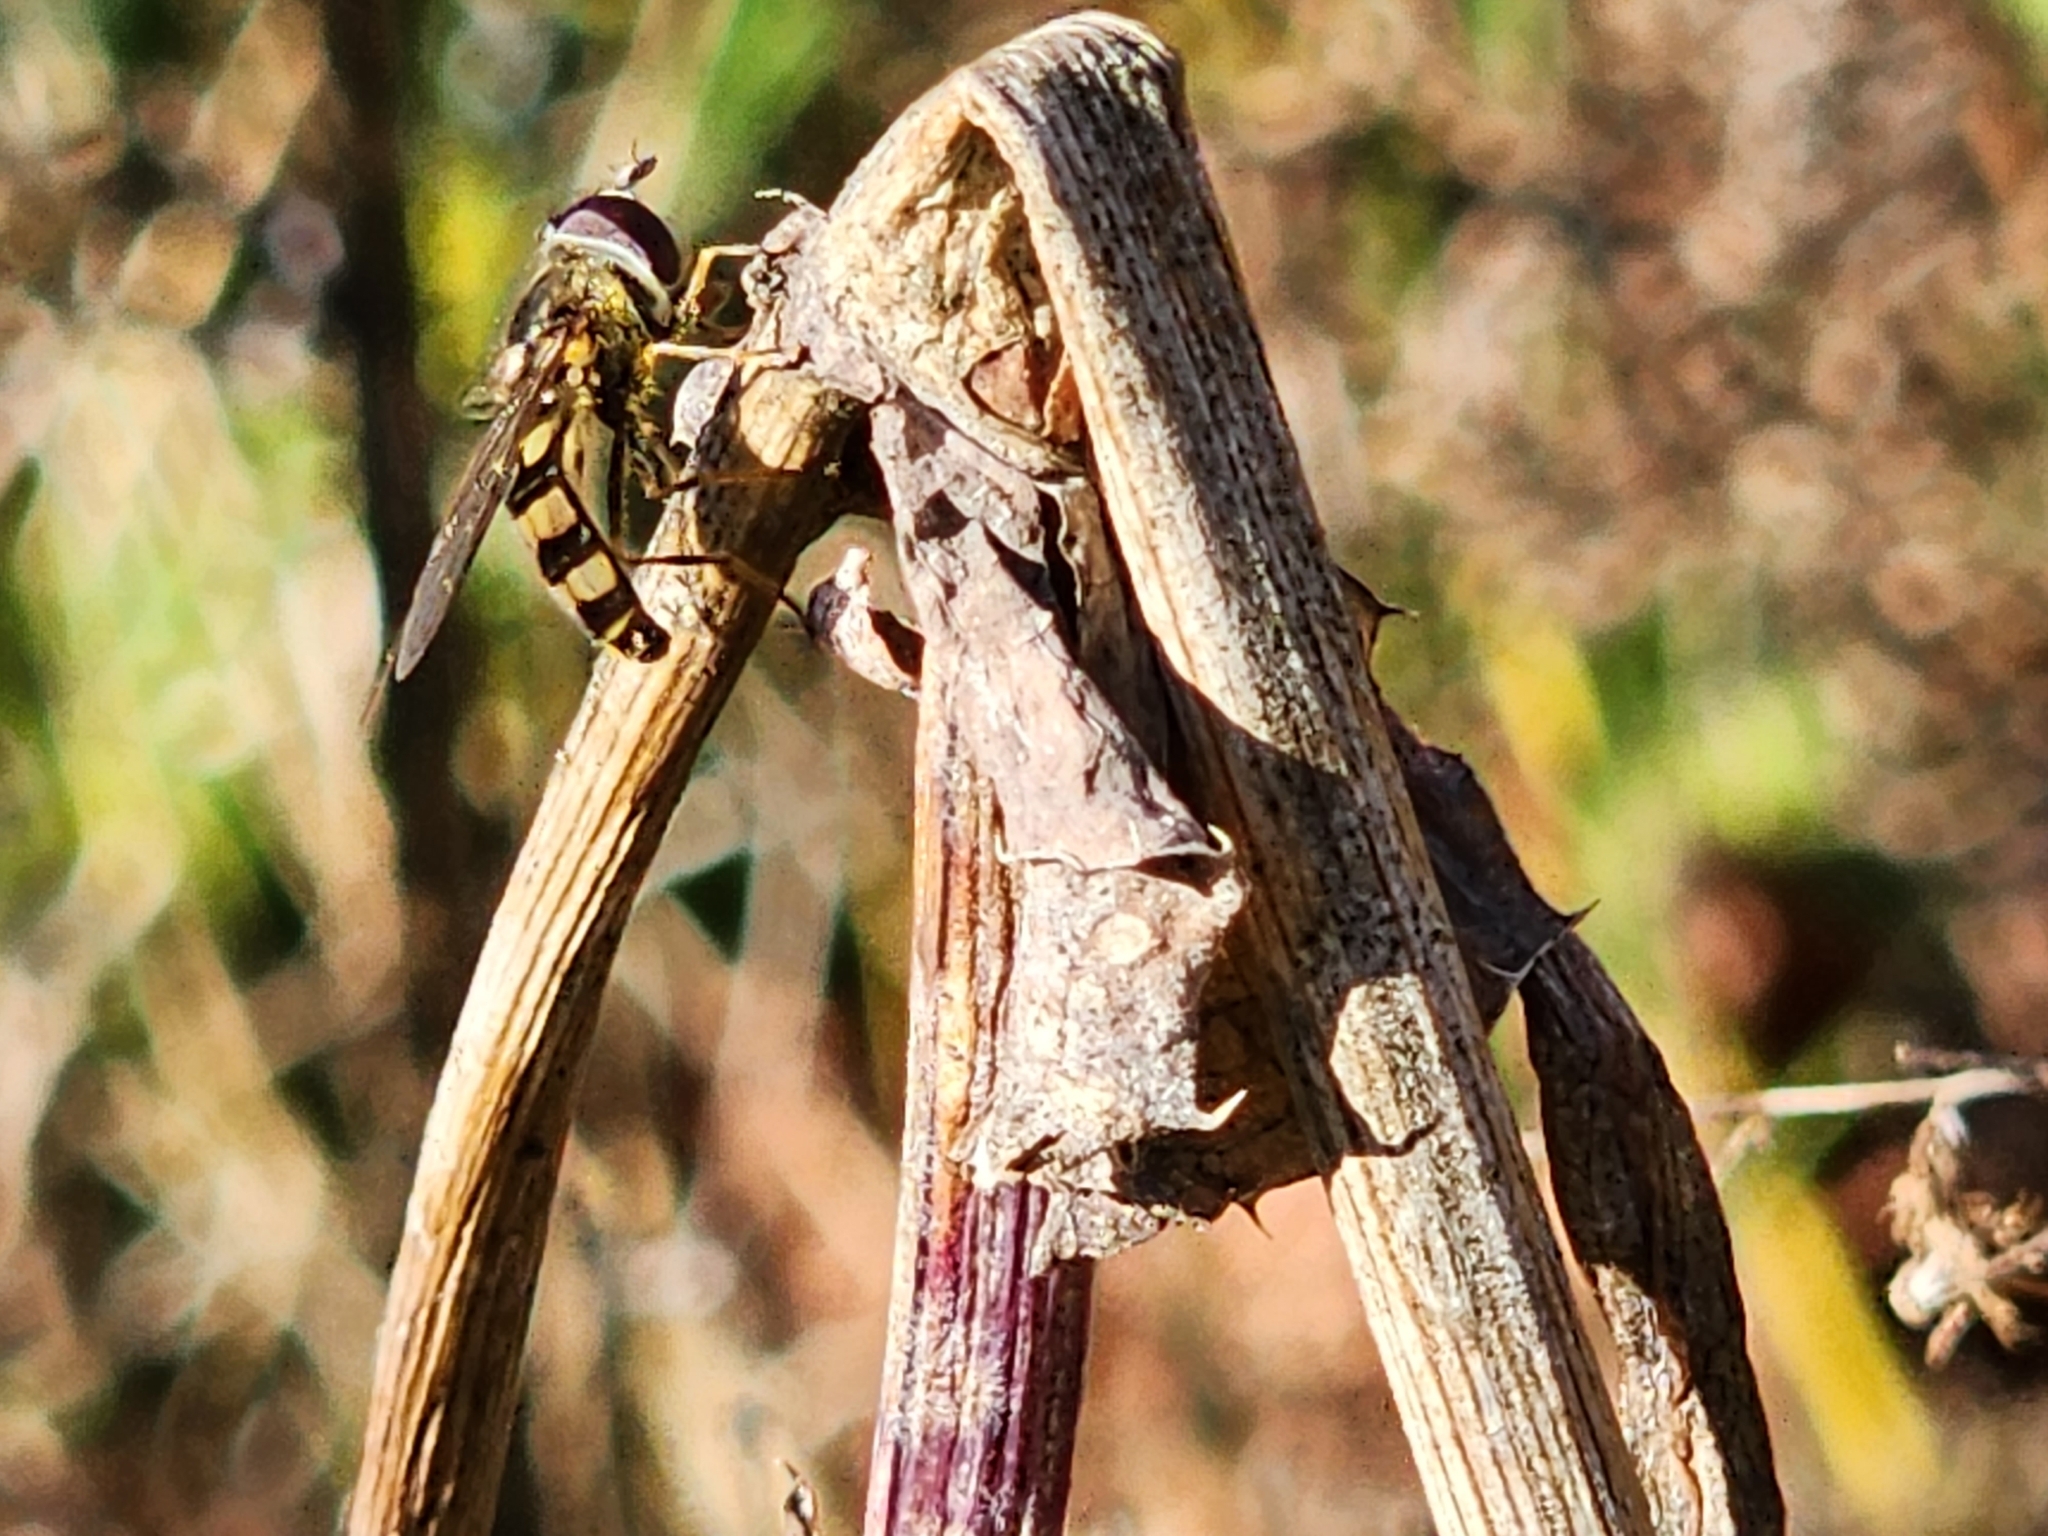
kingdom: Animalia
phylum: Arthropoda
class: Insecta
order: Diptera
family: Syrphidae
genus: Eupeodes
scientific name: Eupeodes
